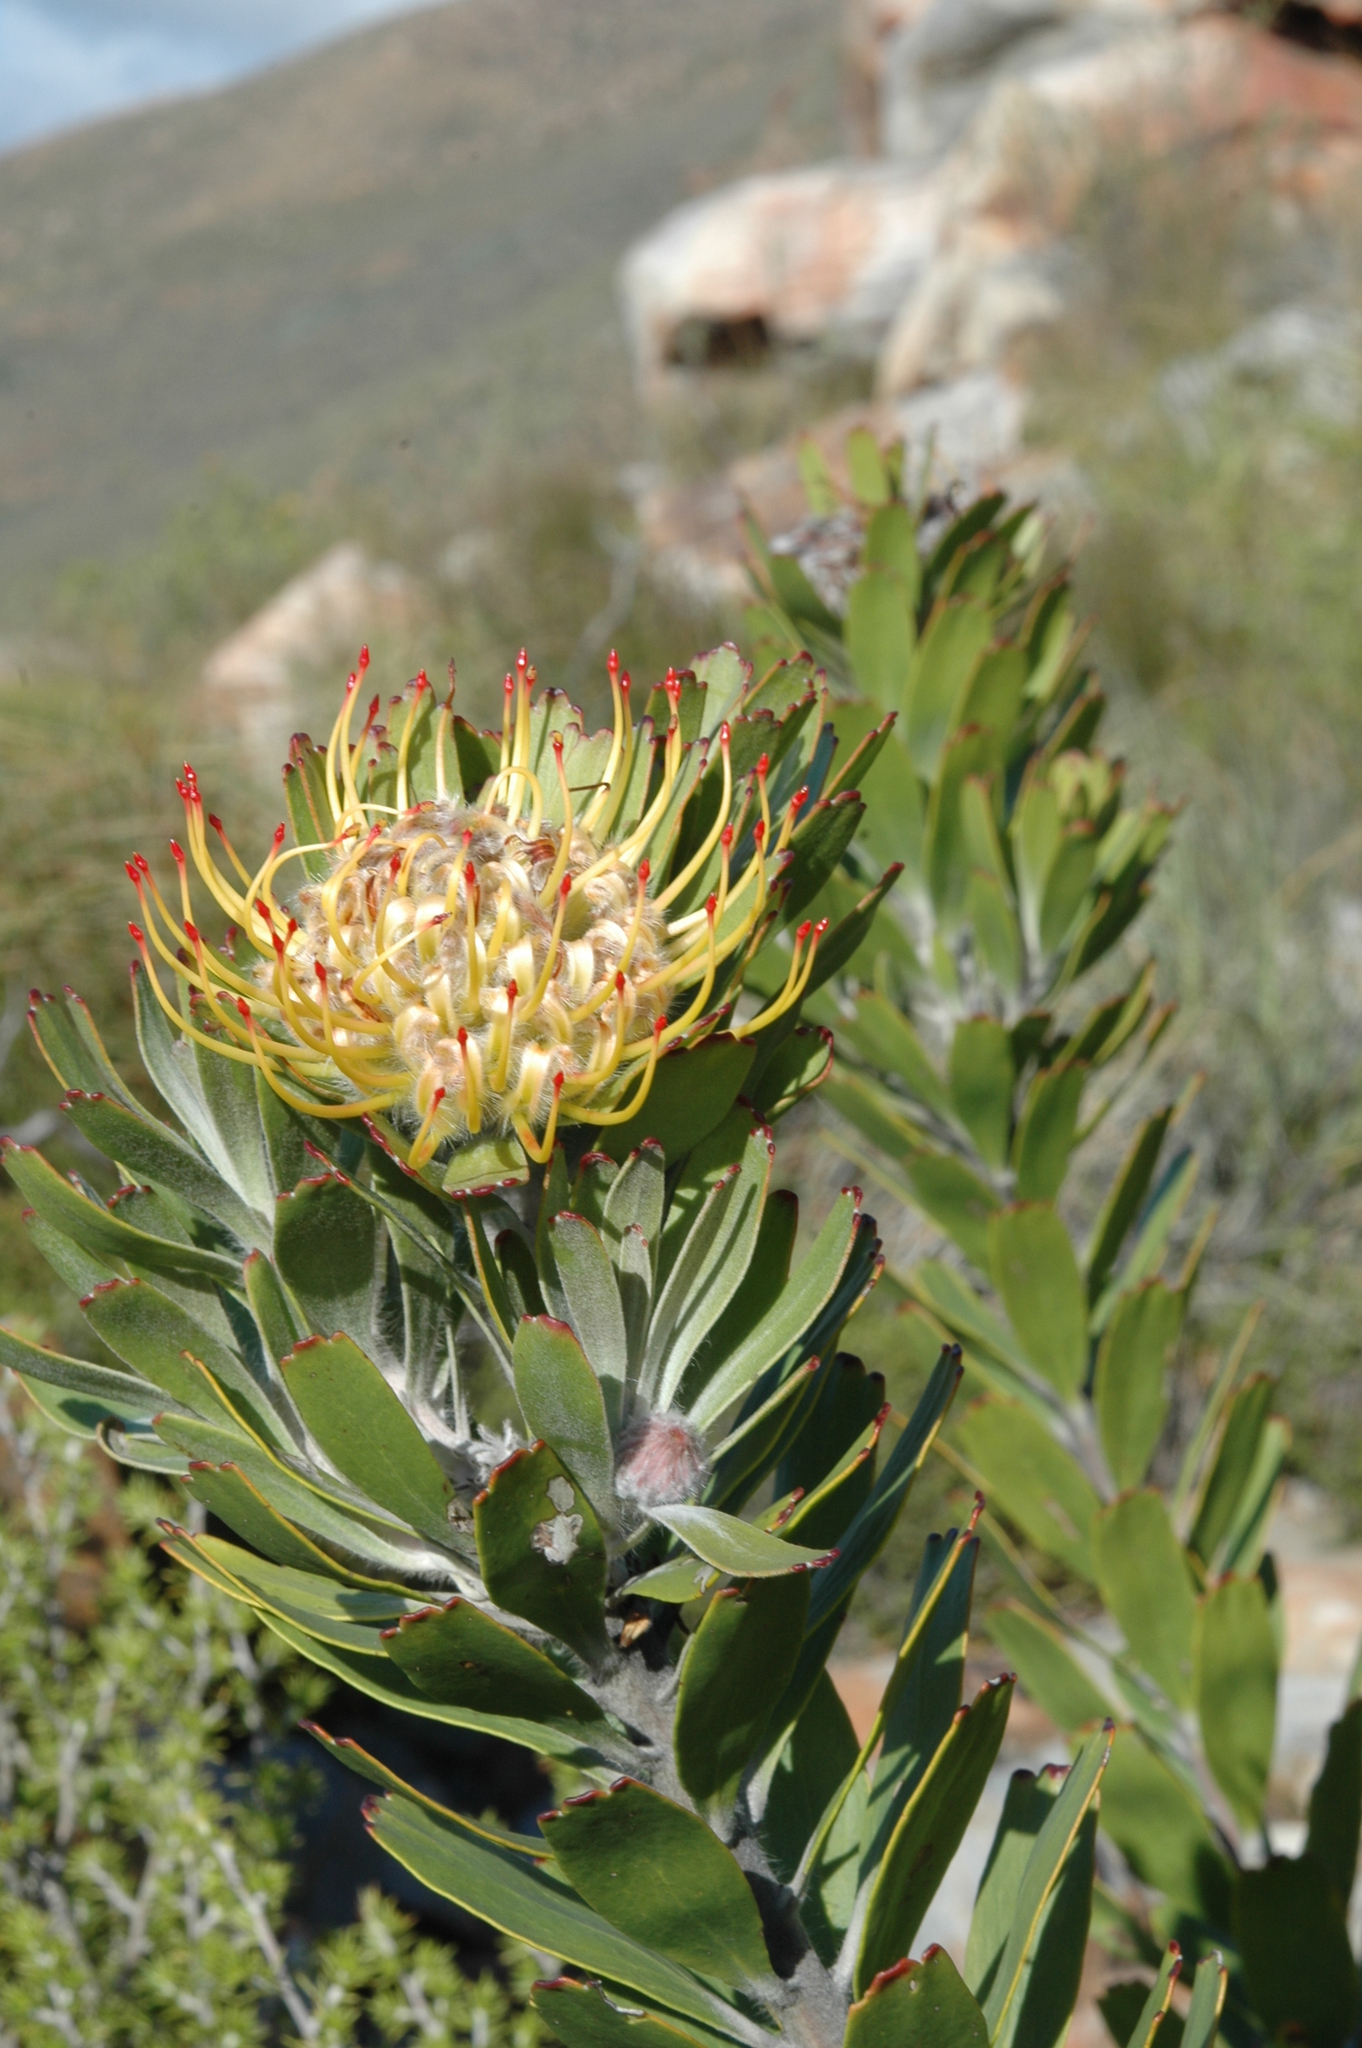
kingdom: Plantae
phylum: Tracheophyta
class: Magnoliopsida
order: Proteales
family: Proteaceae
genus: Leucospermum
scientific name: Leucospermum utriculosum
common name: Breede river pincushion
